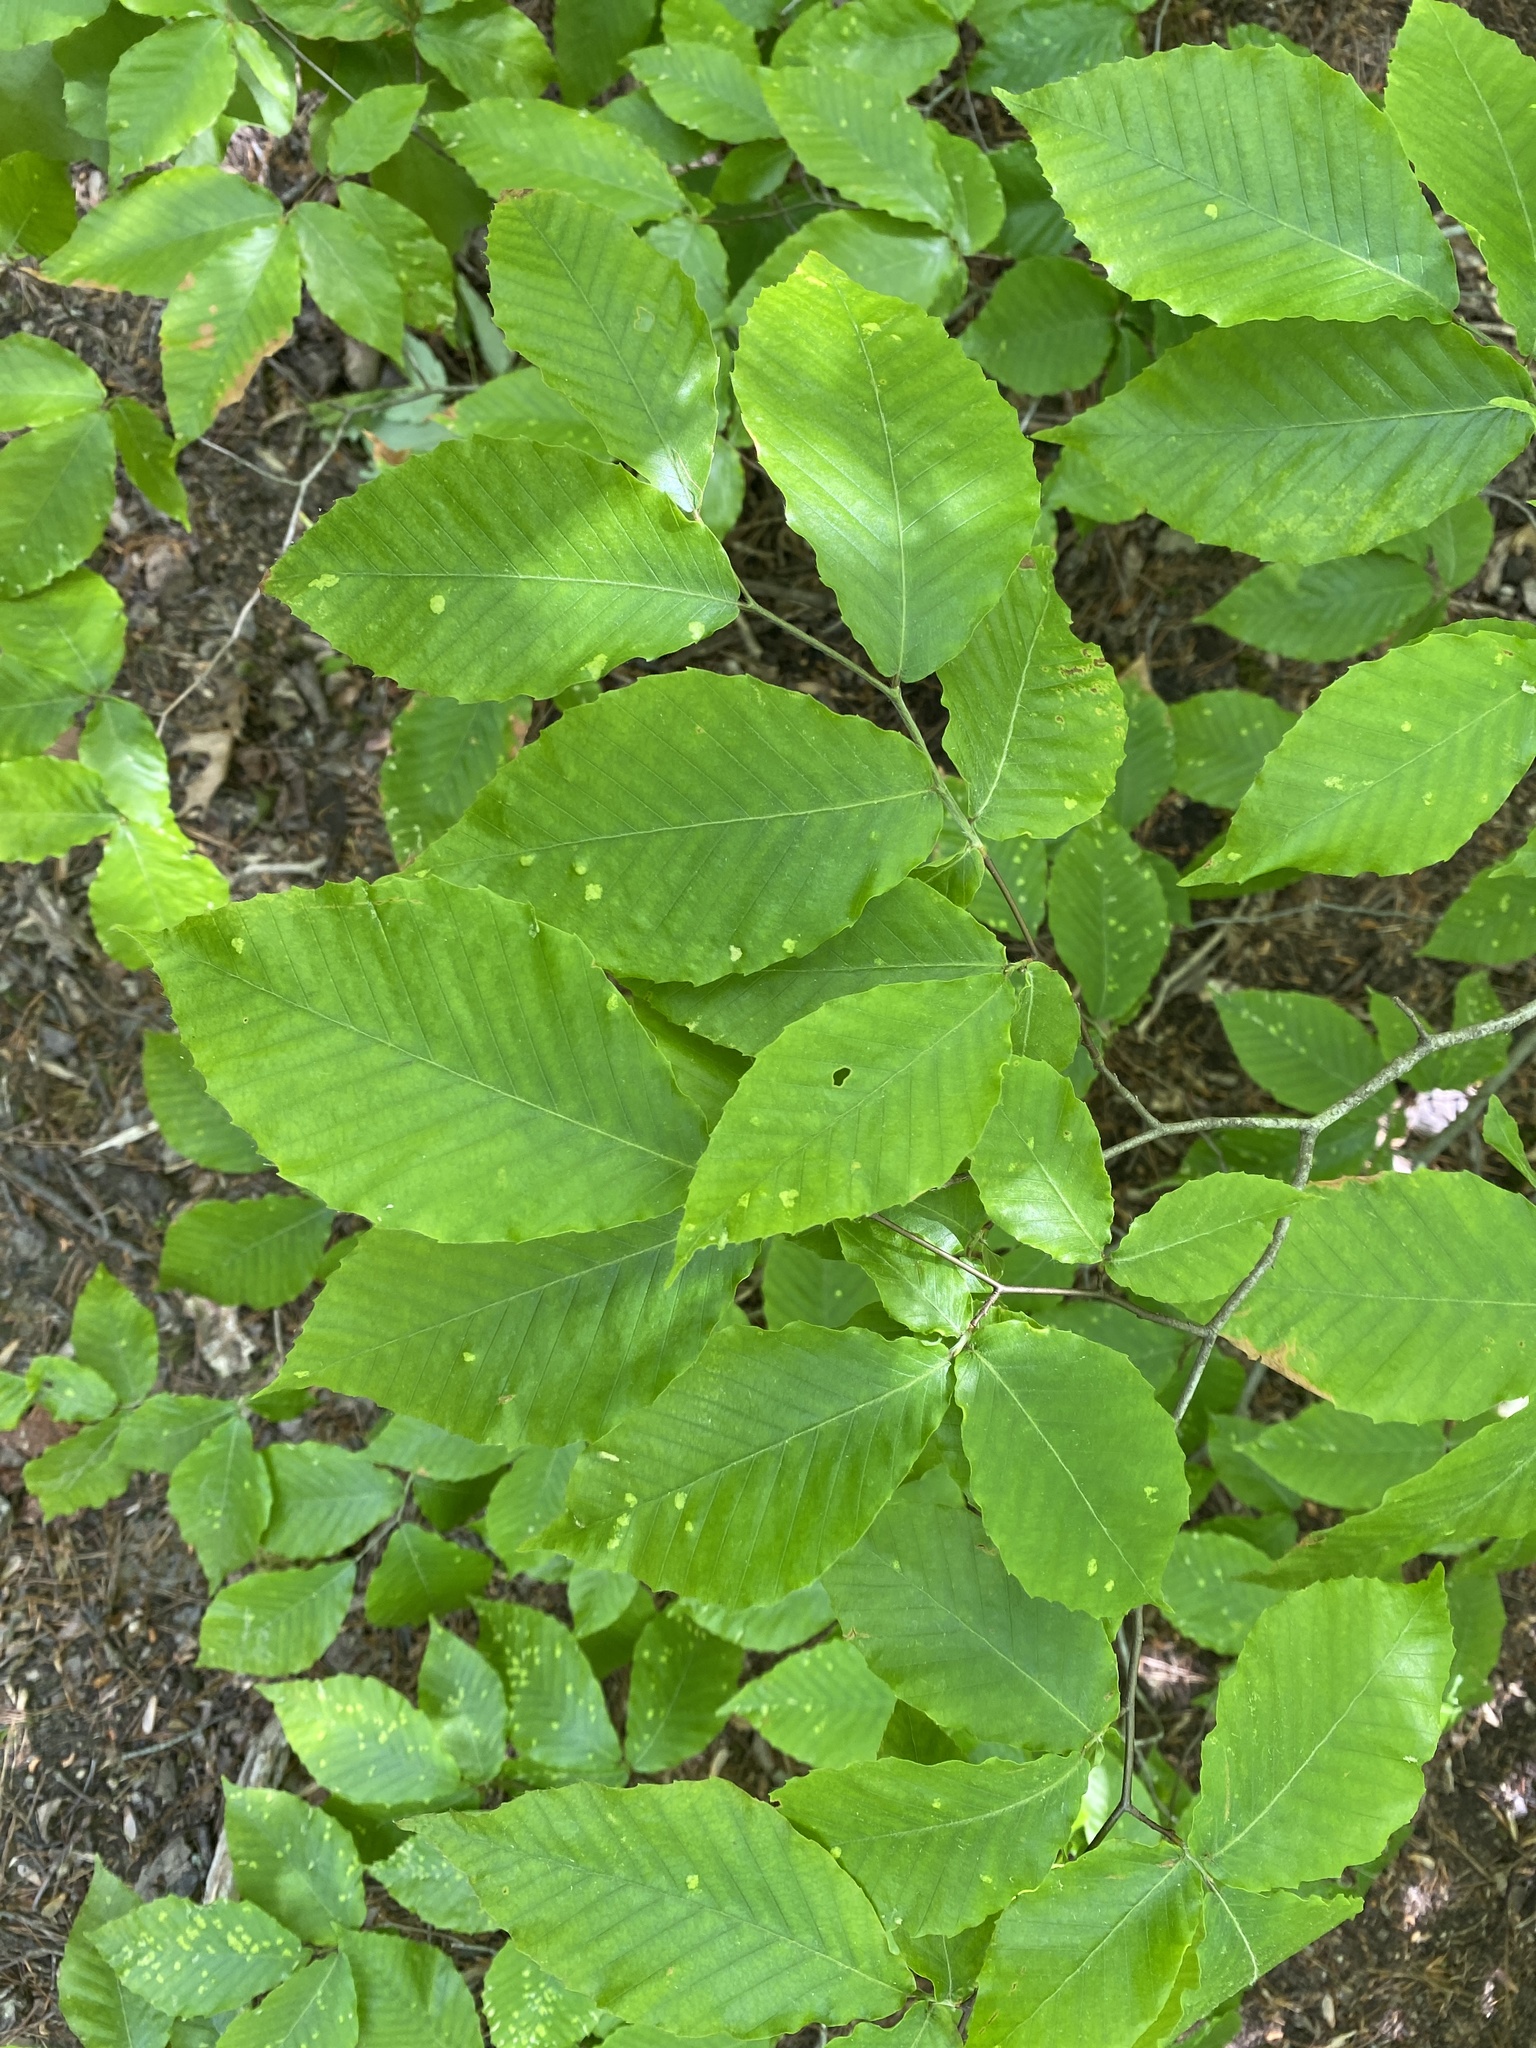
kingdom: Plantae
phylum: Tracheophyta
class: Magnoliopsida
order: Fagales
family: Fagaceae
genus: Fagus
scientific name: Fagus grandifolia
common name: American beech
